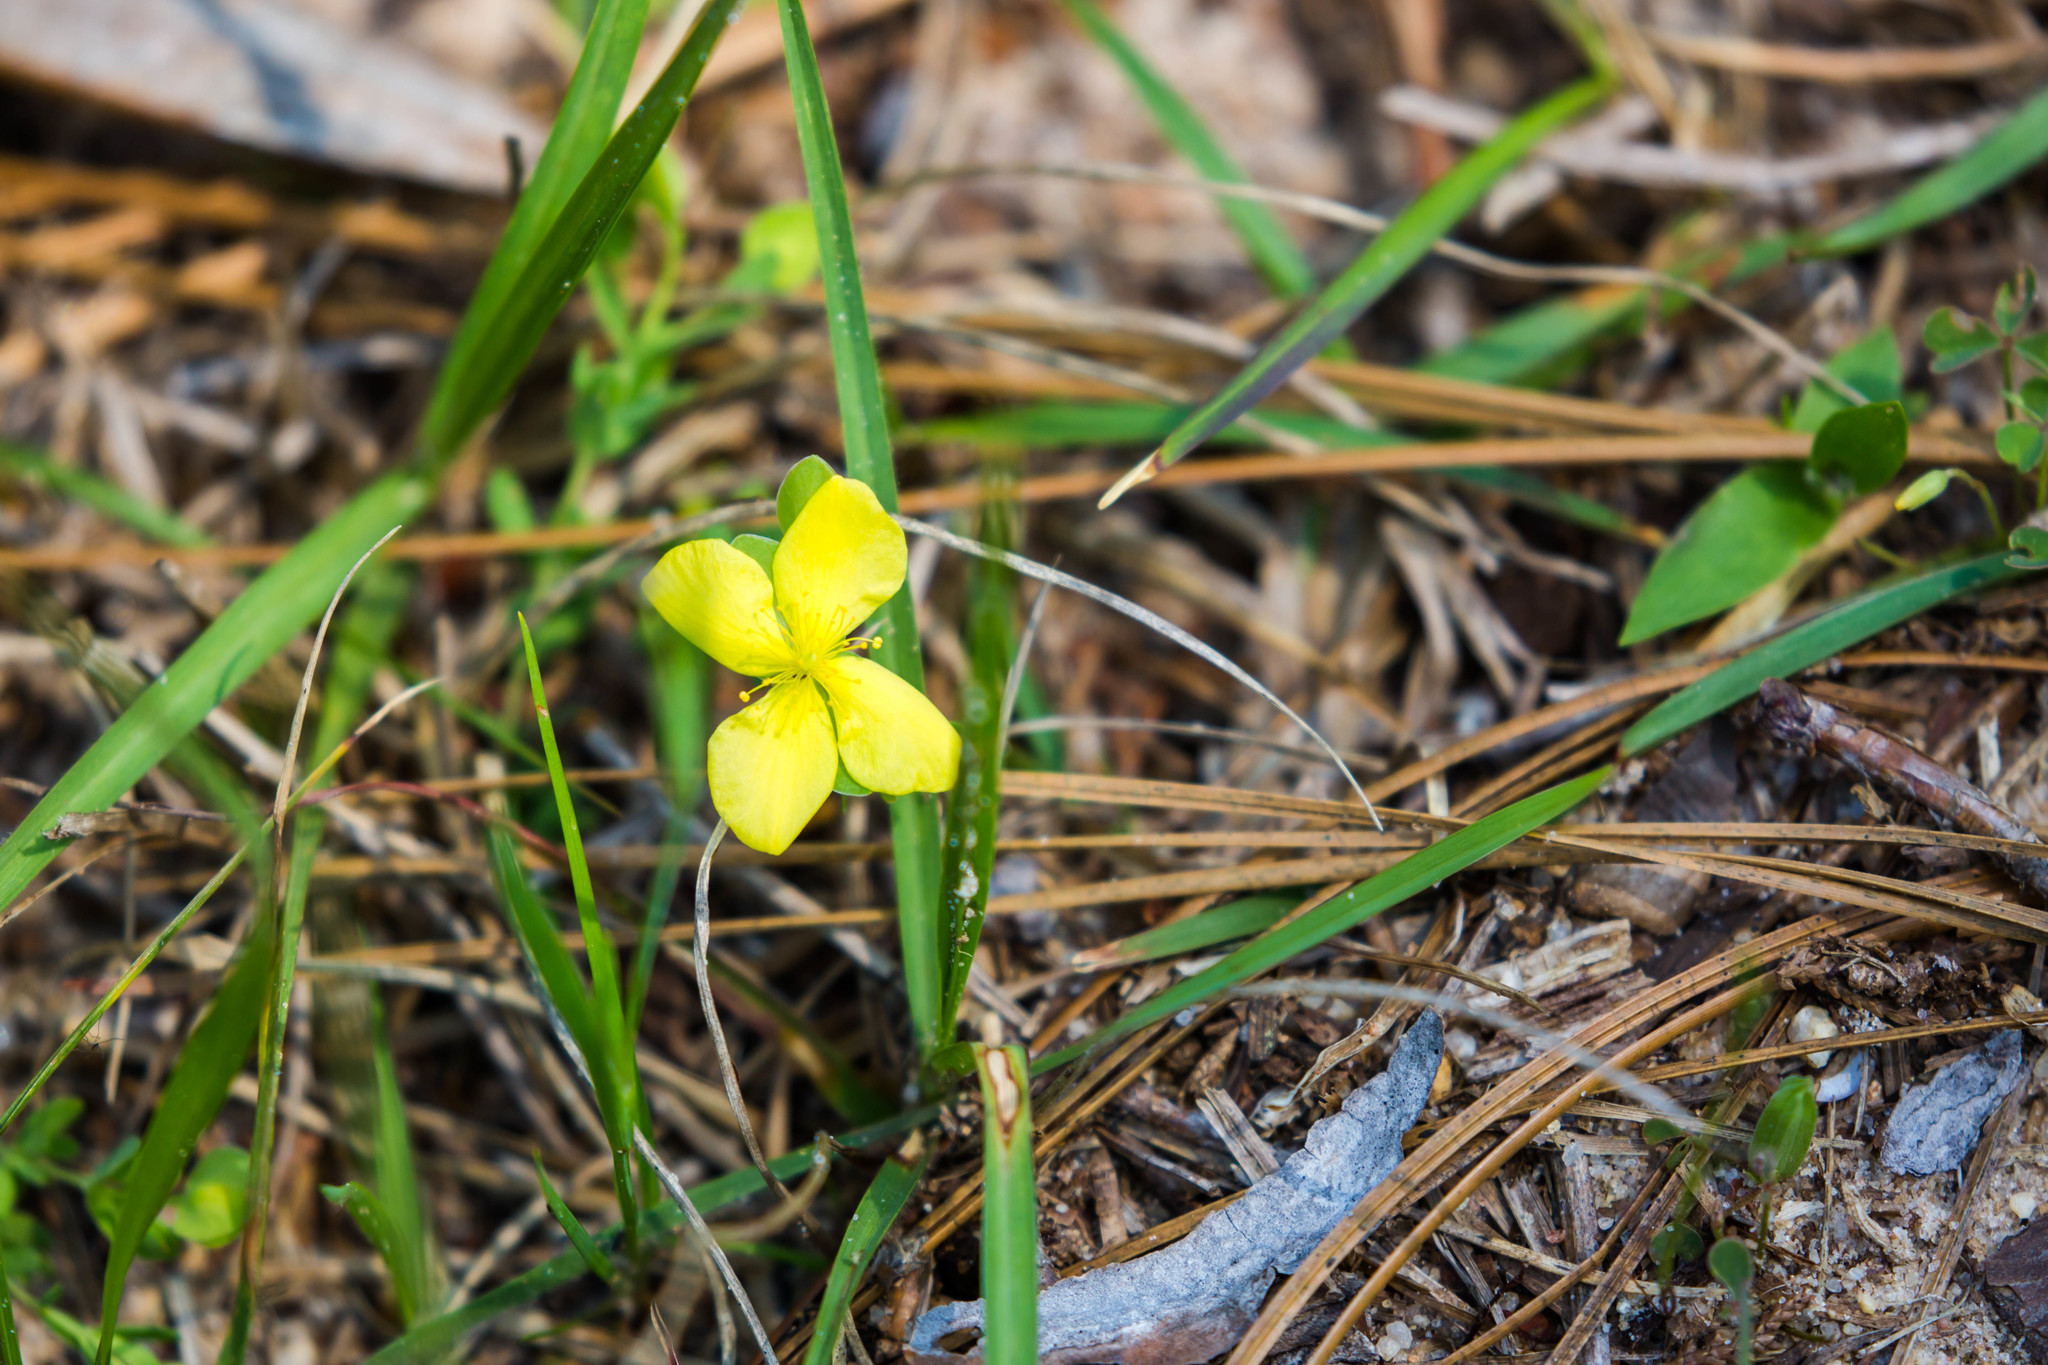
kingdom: Plantae
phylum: Tracheophyta
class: Magnoliopsida
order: Malpighiales
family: Hypericaceae
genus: Hypericum
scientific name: Hypericum suffruticosum
